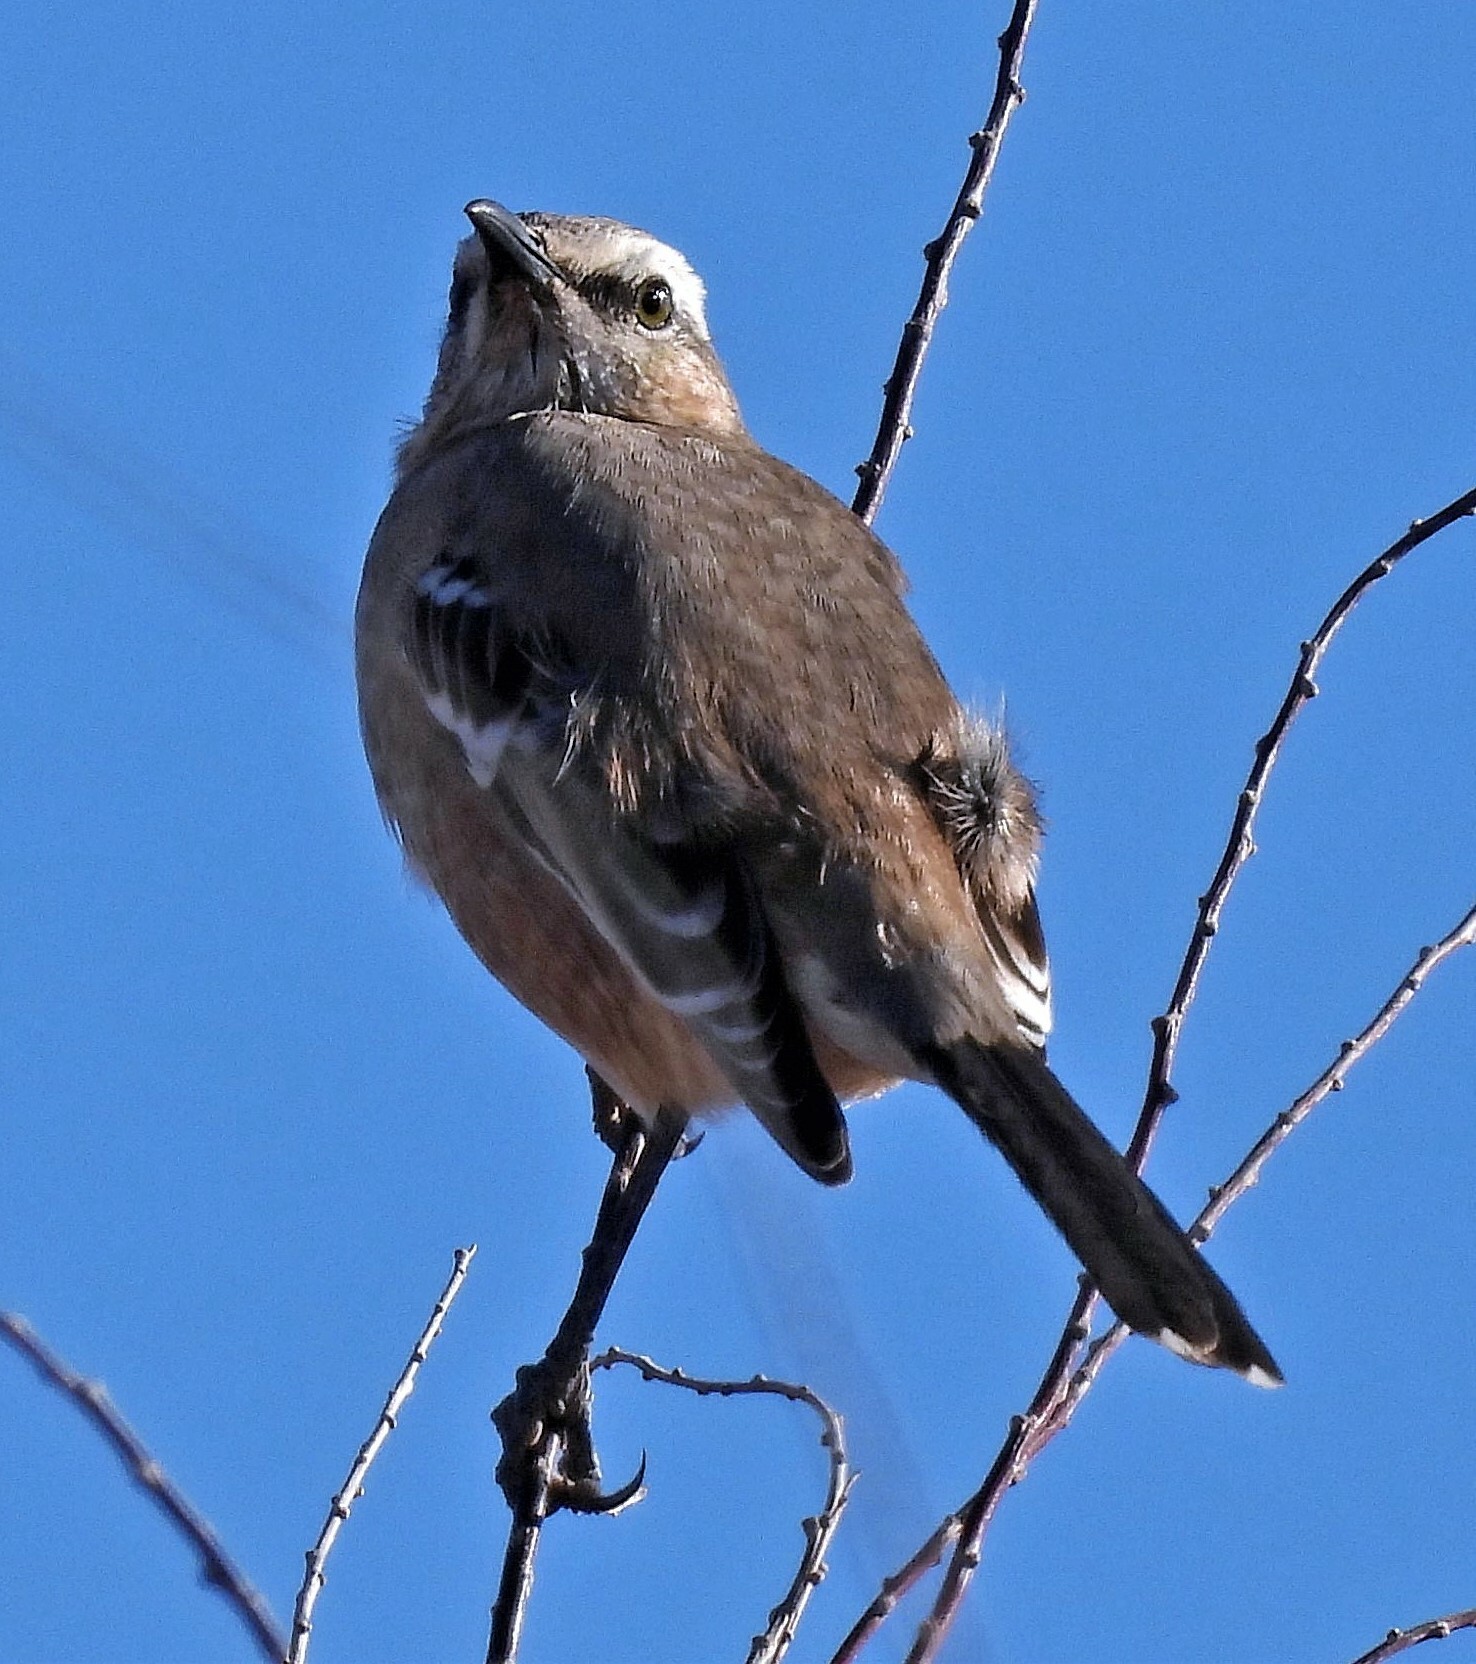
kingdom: Animalia
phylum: Chordata
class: Aves
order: Passeriformes
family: Mimidae
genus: Mimus
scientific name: Mimus patagonicus
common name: Patagonian mockingbird
